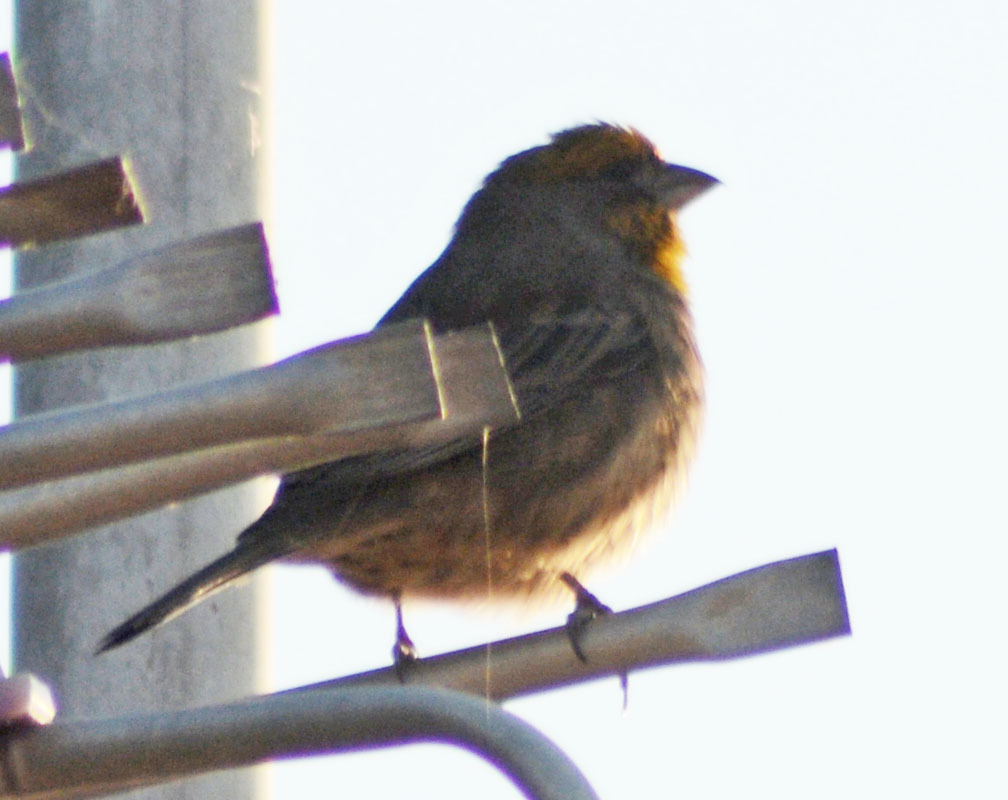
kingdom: Animalia
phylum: Chordata
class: Aves
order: Passeriformes
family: Fringillidae
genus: Haemorhous
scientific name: Haemorhous mexicanus
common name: House finch
